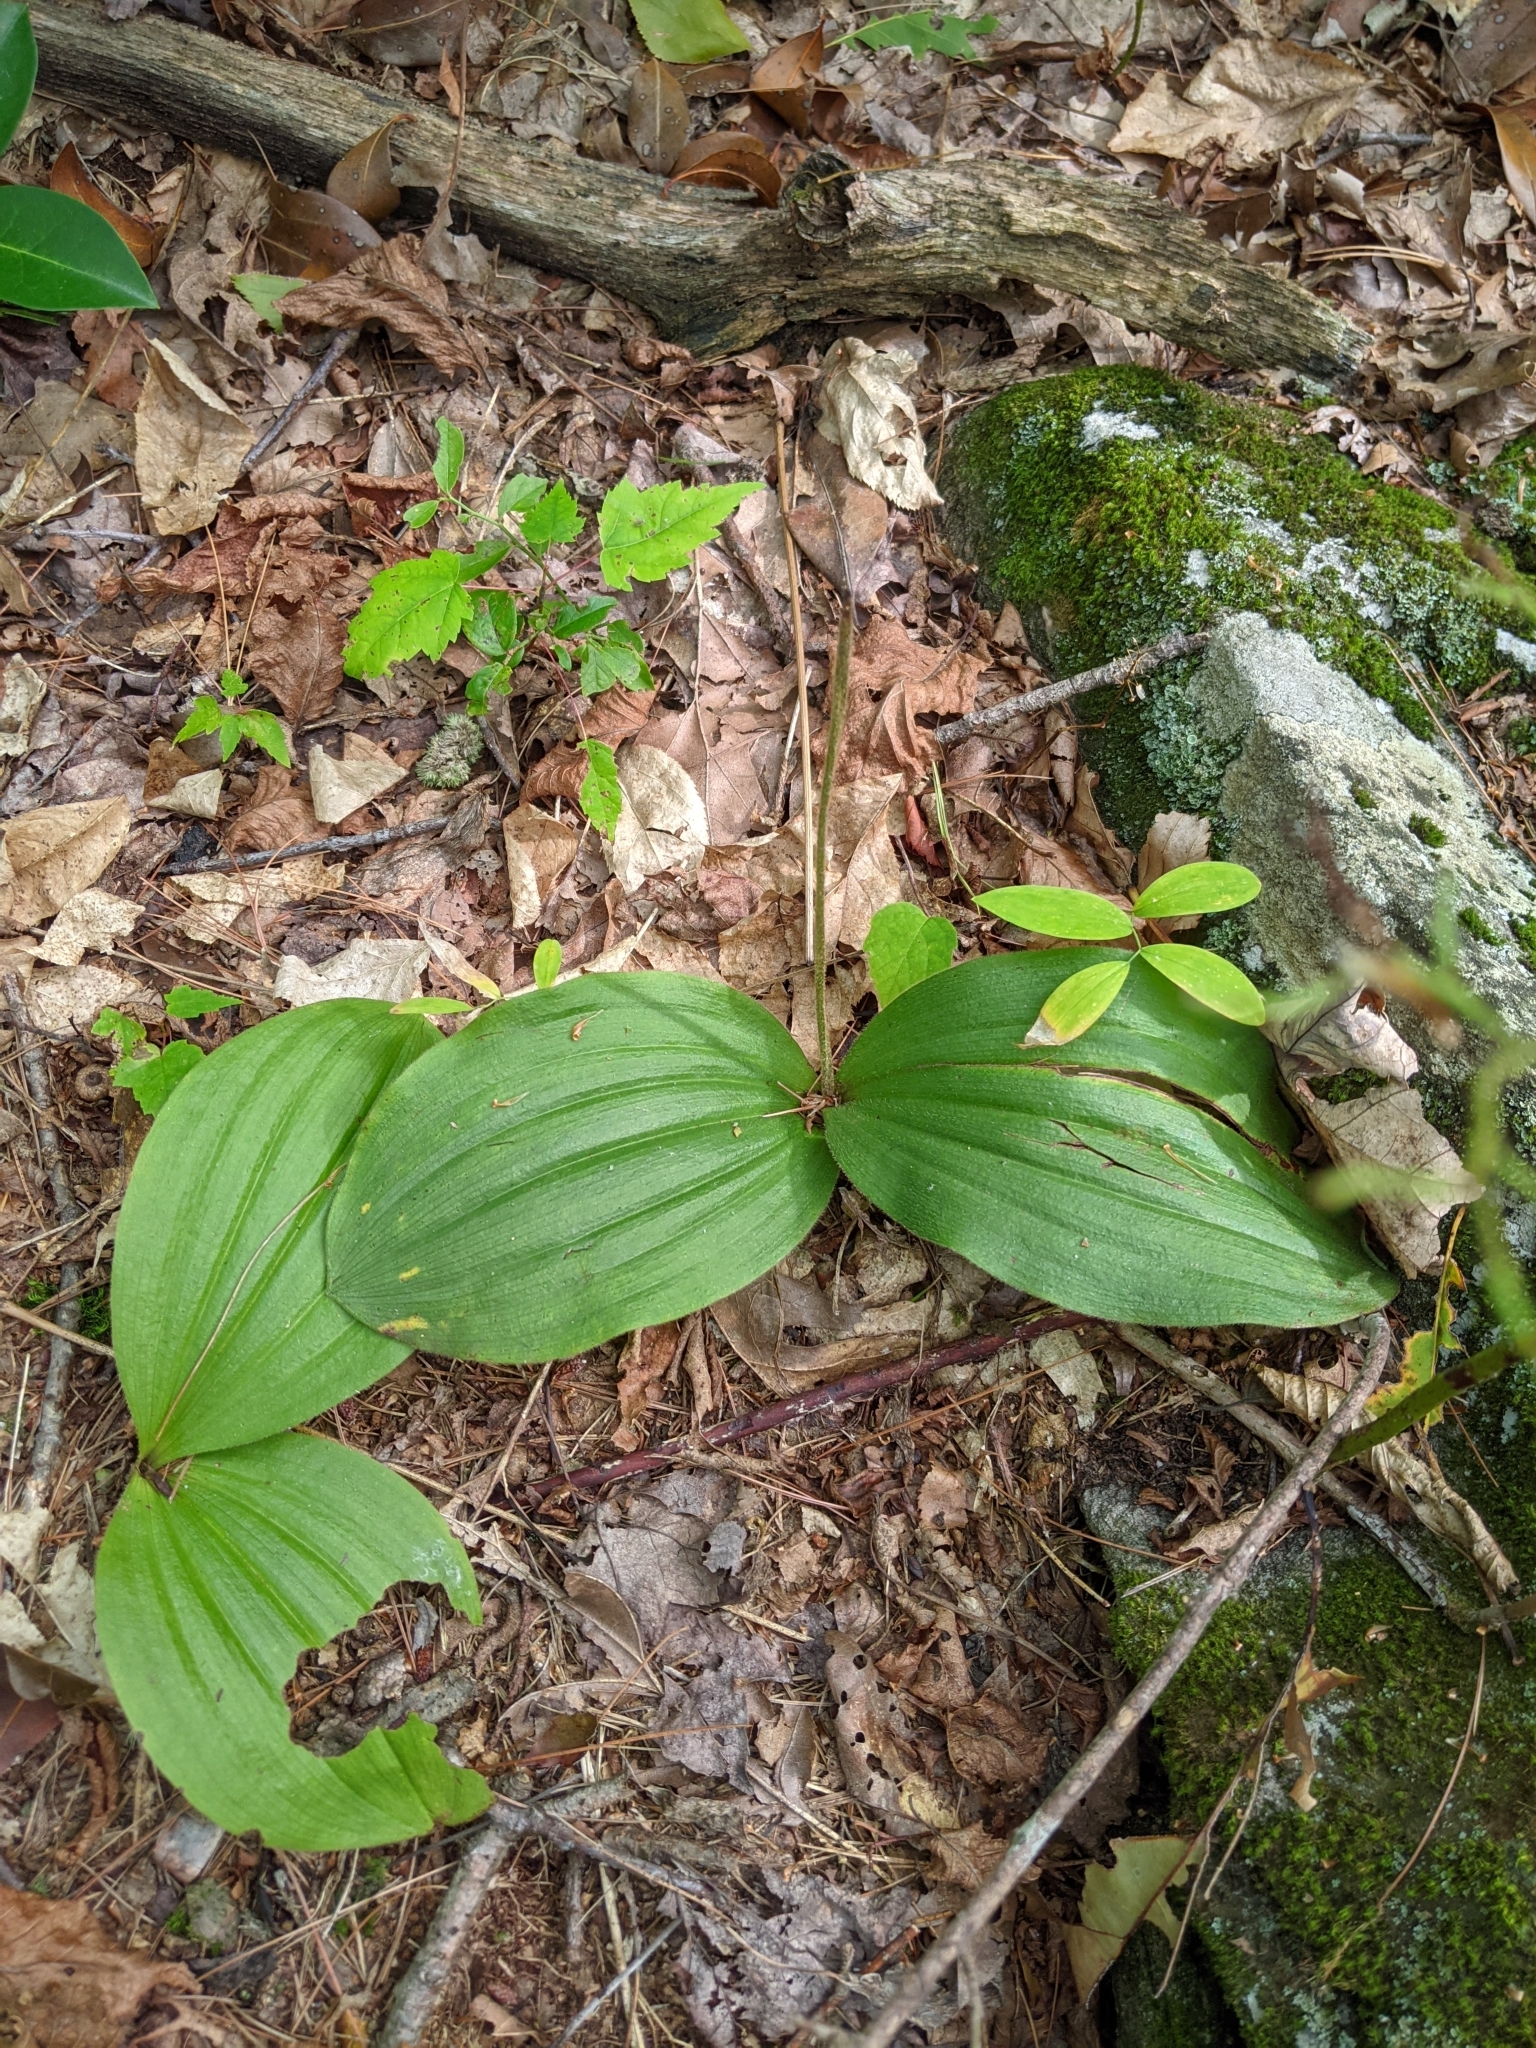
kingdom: Plantae
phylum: Tracheophyta
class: Liliopsida
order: Asparagales
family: Orchidaceae
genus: Cypripedium
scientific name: Cypripedium acaule
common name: Pink lady's-slipper
